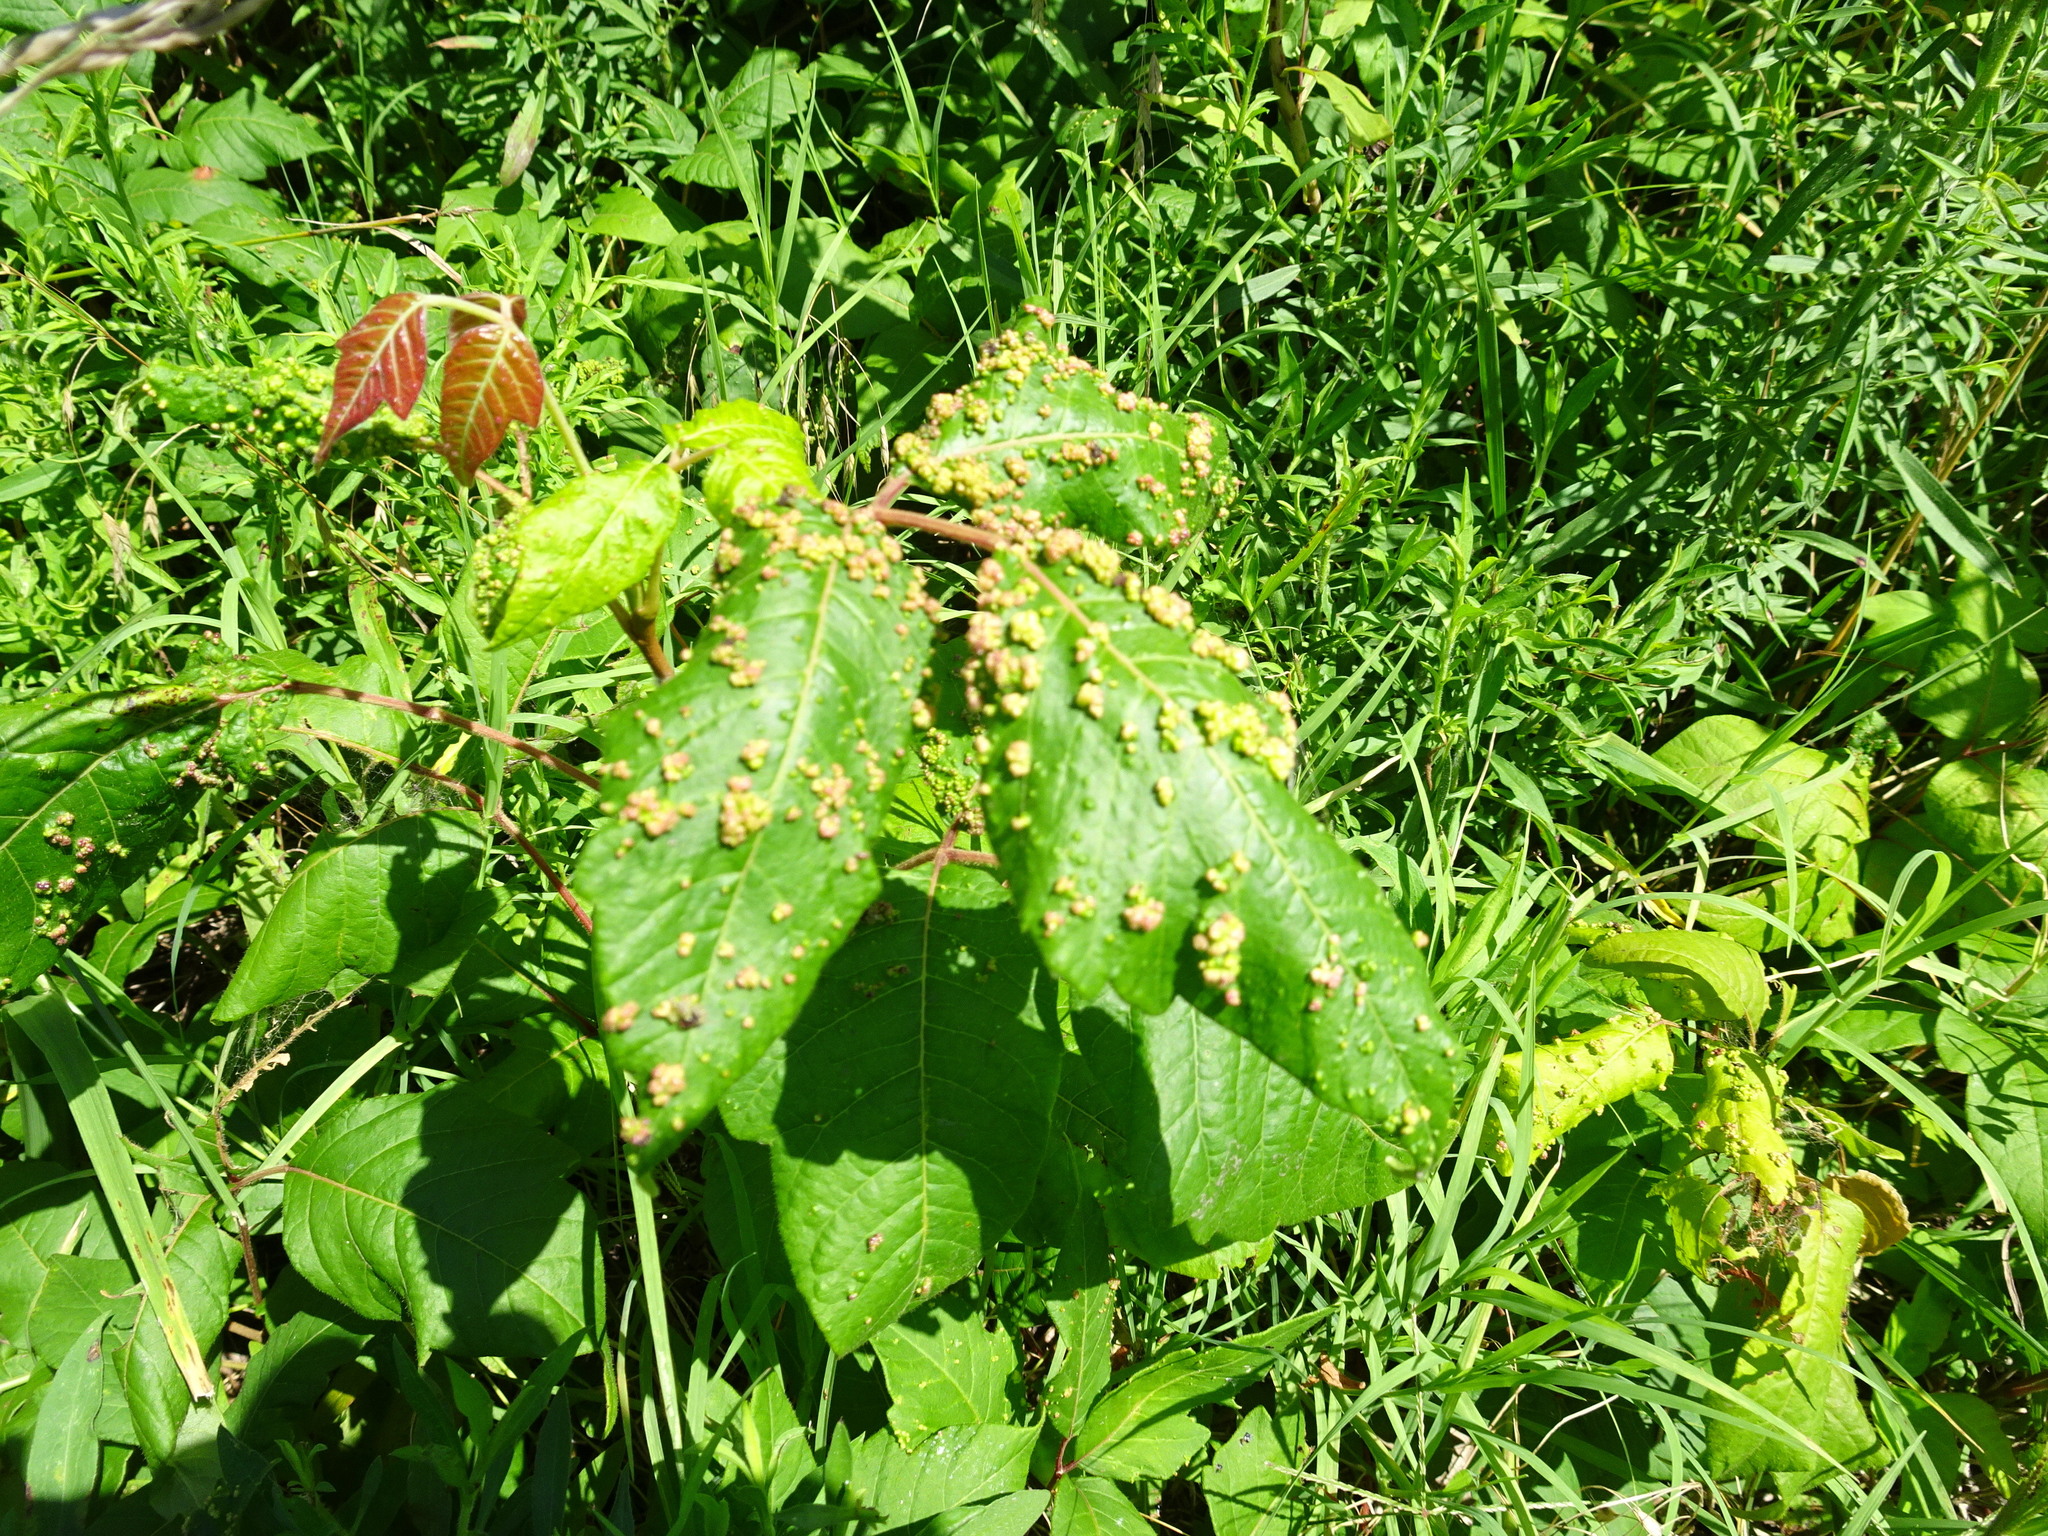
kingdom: Animalia
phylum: Arthropoda
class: Arachnida
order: Trombidiformes
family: Eriophyidae
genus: Aculops
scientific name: Aculops
